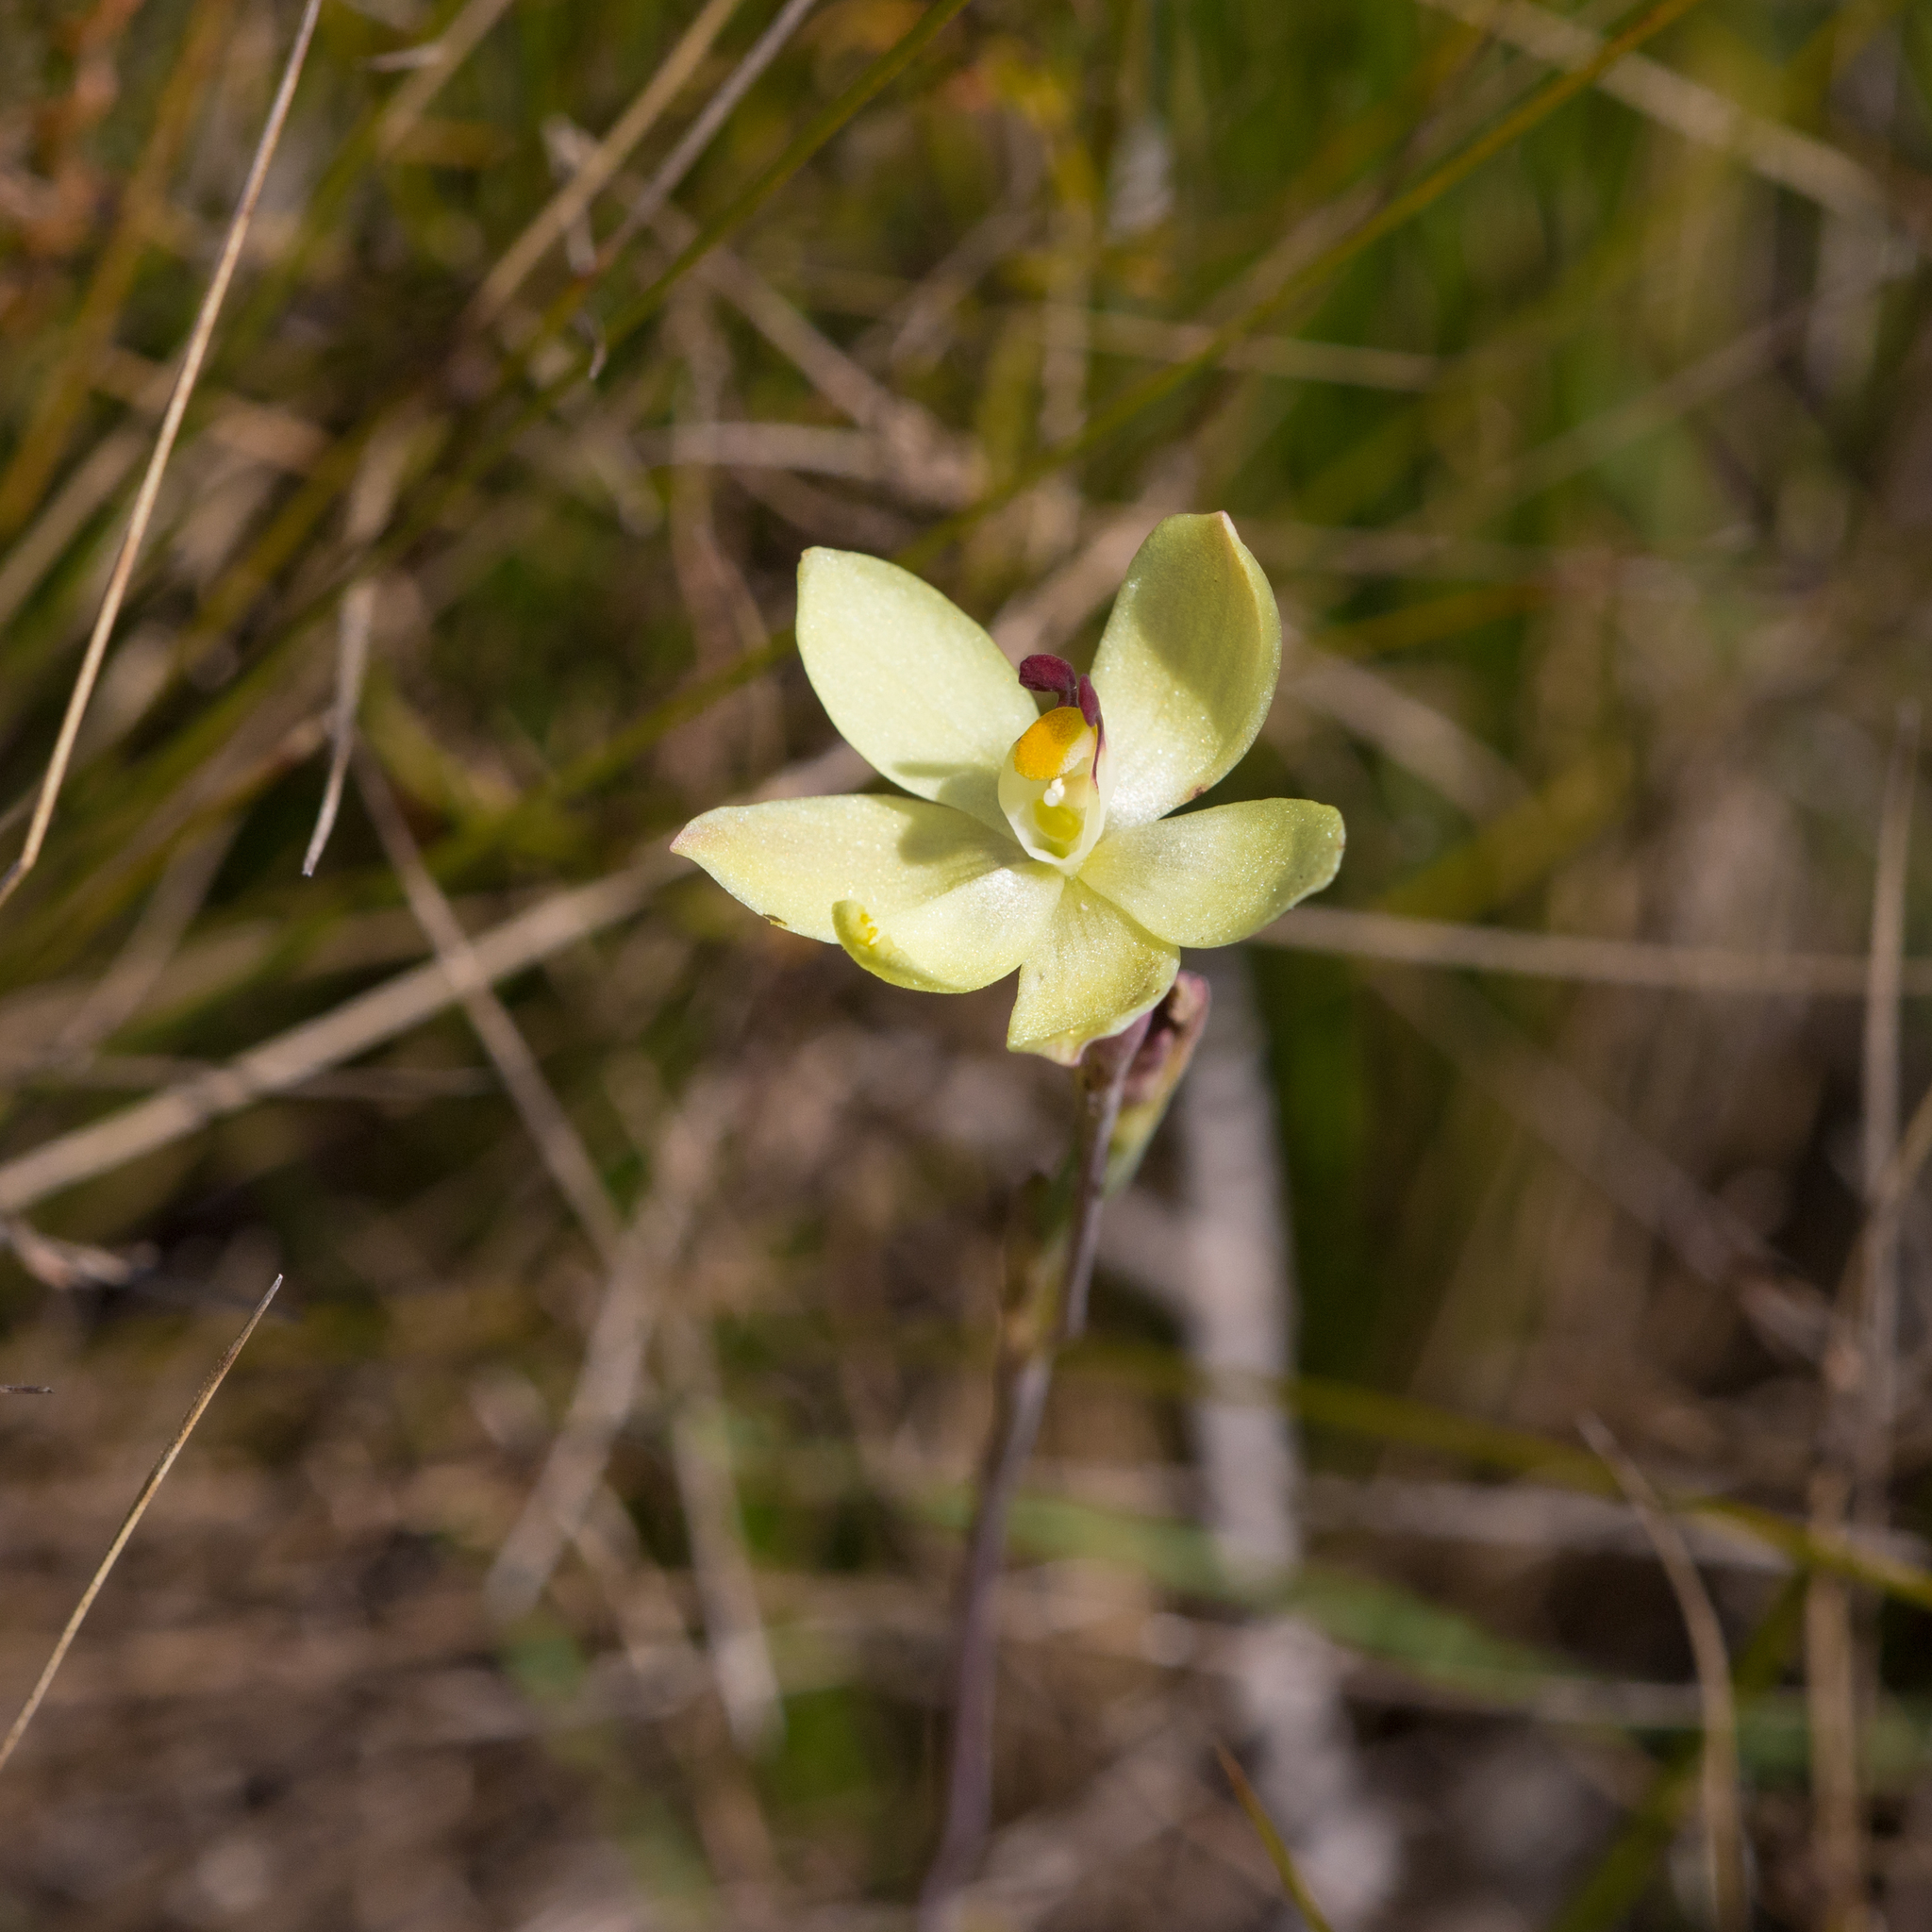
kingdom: Plantae
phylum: Tracheophyta
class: Liliopsida
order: Asparagales
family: Orchidaceae
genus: Thelymitra
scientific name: Thelymitra antennifera
